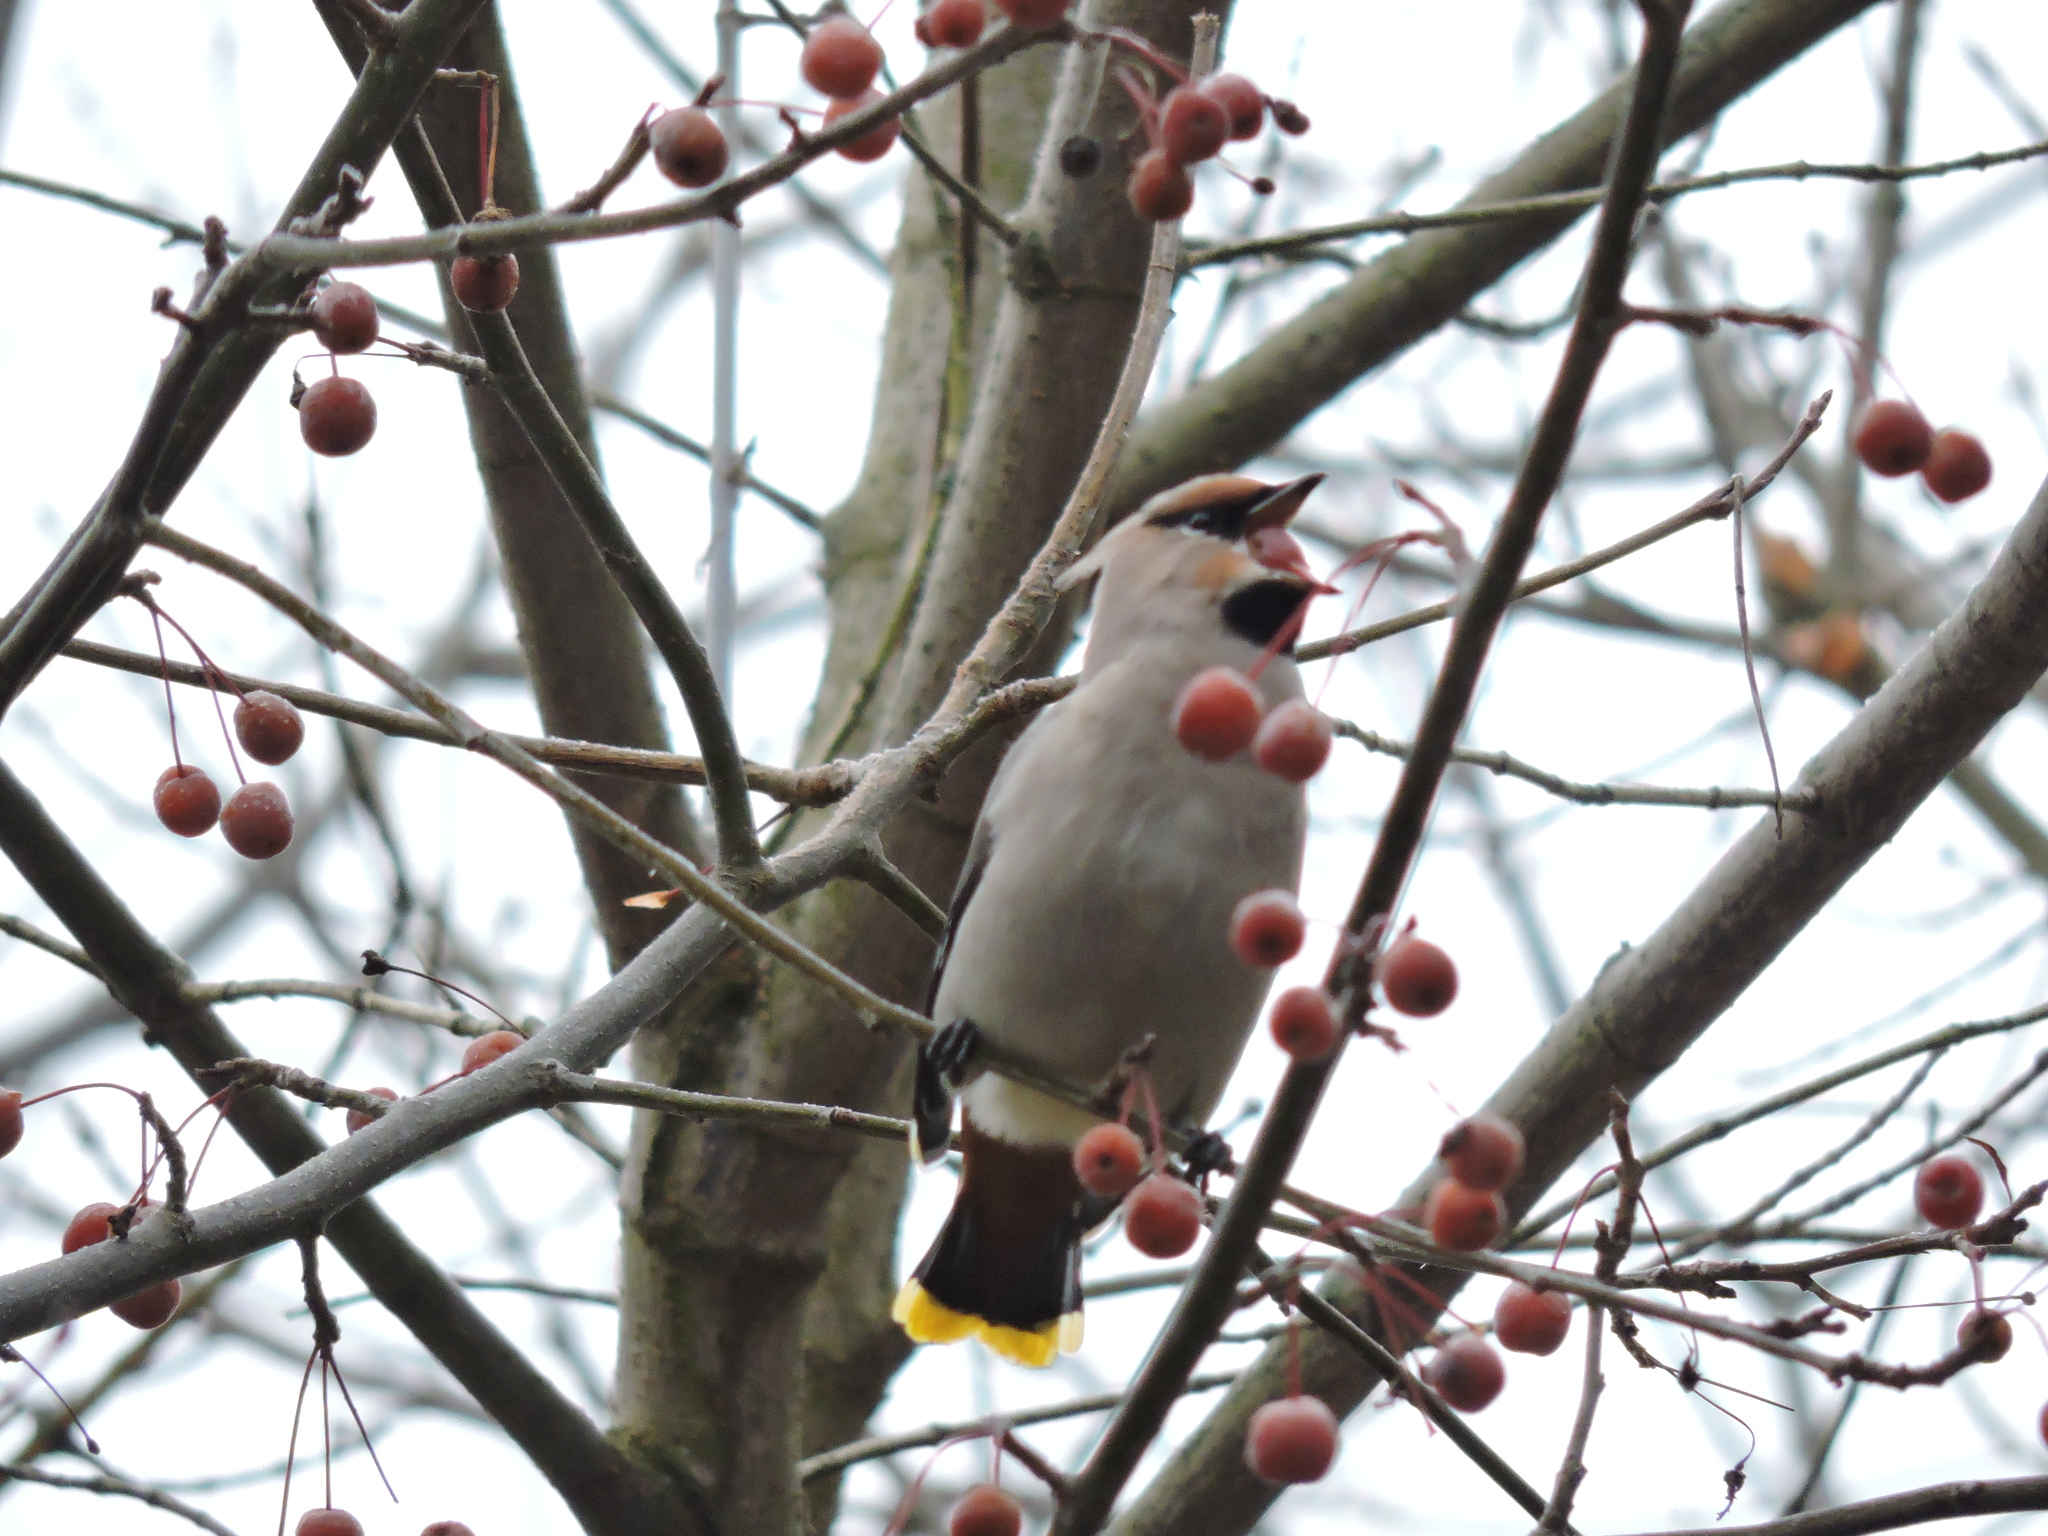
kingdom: Animalia
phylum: Chordata
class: Aves
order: Passeriformes
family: Bombycillidae
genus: Bombycilla
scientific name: Bombycilla garrulus
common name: Bohemian waxwing
